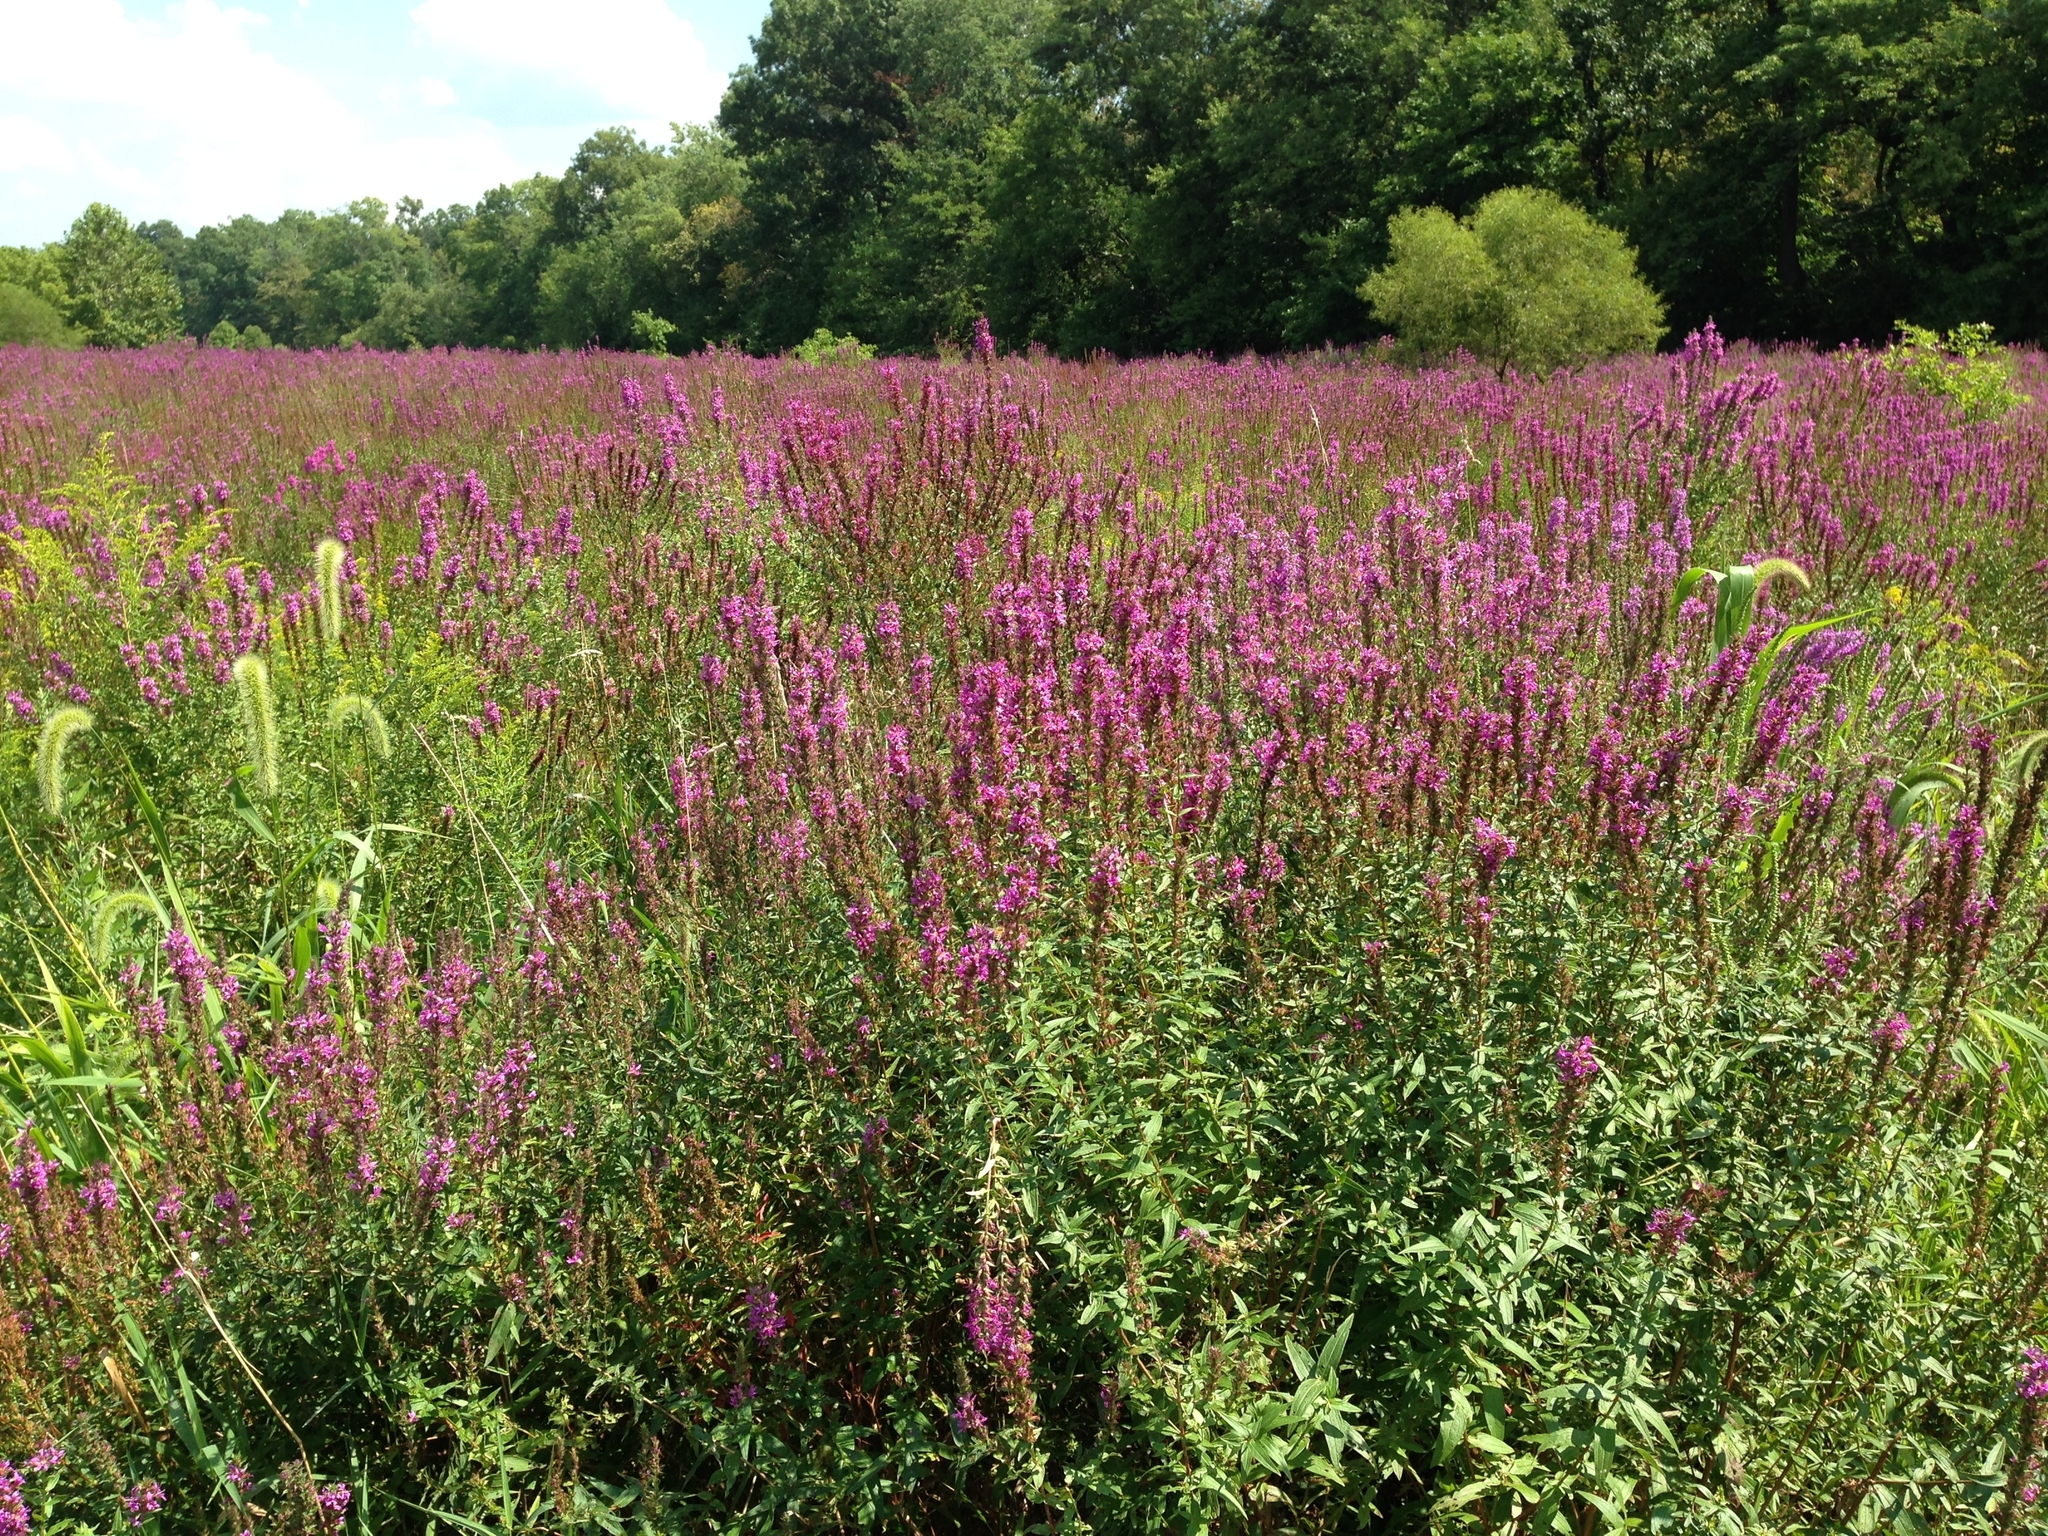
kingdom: Plantae
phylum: Tracheophyta
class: Magnoliopsida
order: Myrtales
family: Lythraceae
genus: Lythrum
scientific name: Lythrum salicaria
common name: Purple loosestrife
